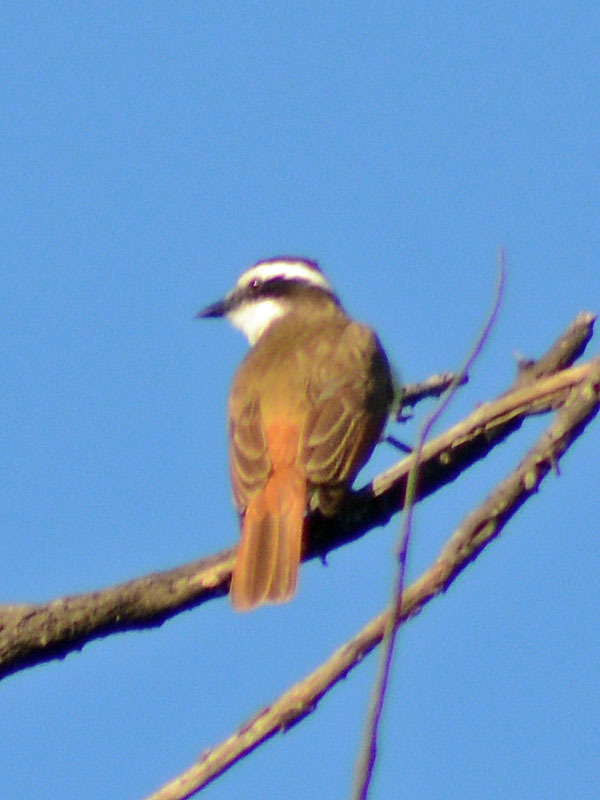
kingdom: Animalia
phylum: Chordata
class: Aves
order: Passeriformes
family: Tyrannidae
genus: Myiozetetes
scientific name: Myiozetetes similis
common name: Social flycatcher
